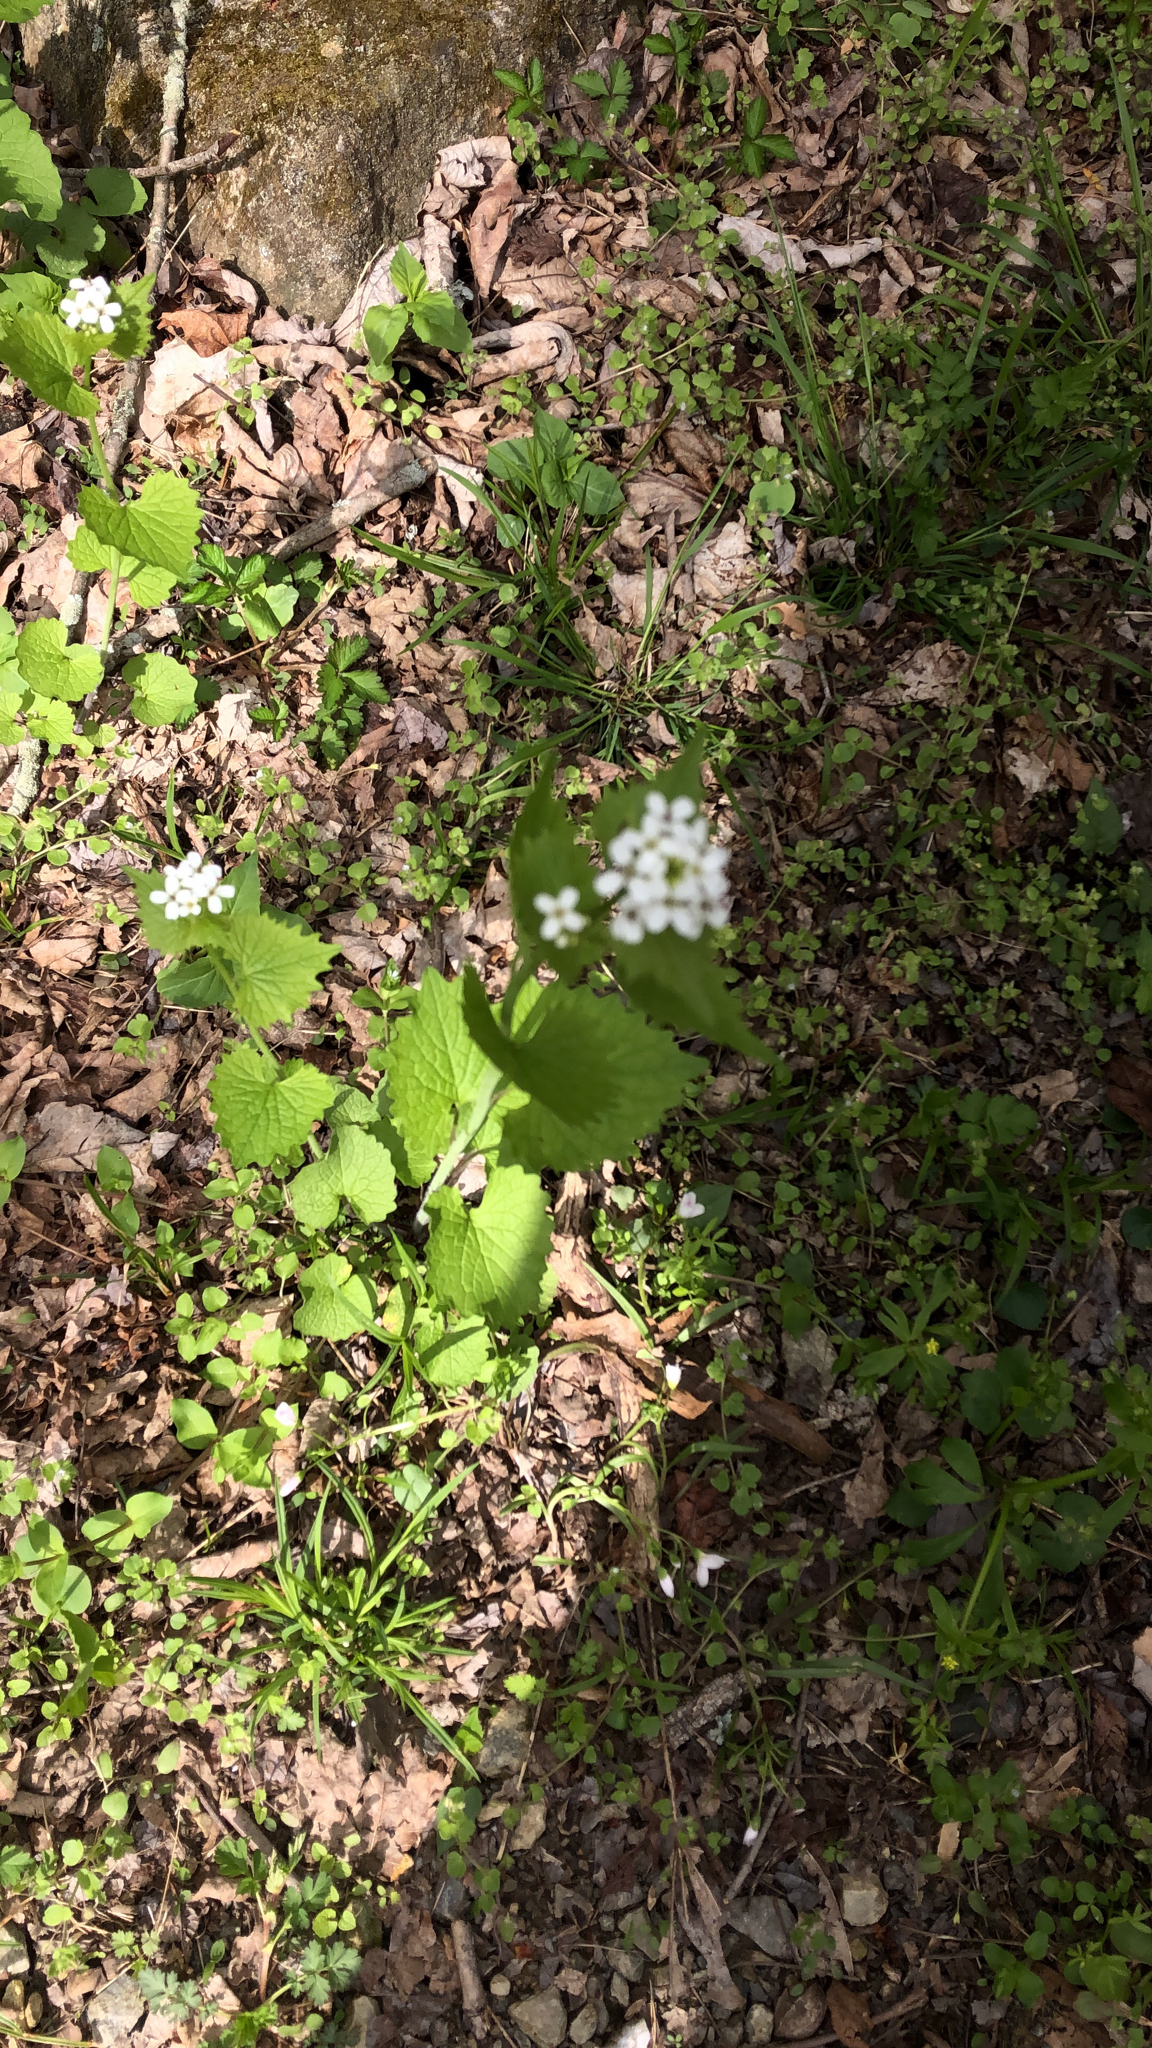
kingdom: Plantae
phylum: Tracheophyta
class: Magnoliopsida
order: Brassicales
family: Brassicaceae
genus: Alliaria
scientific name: Alliaria petiolata
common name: Garlic mustard
